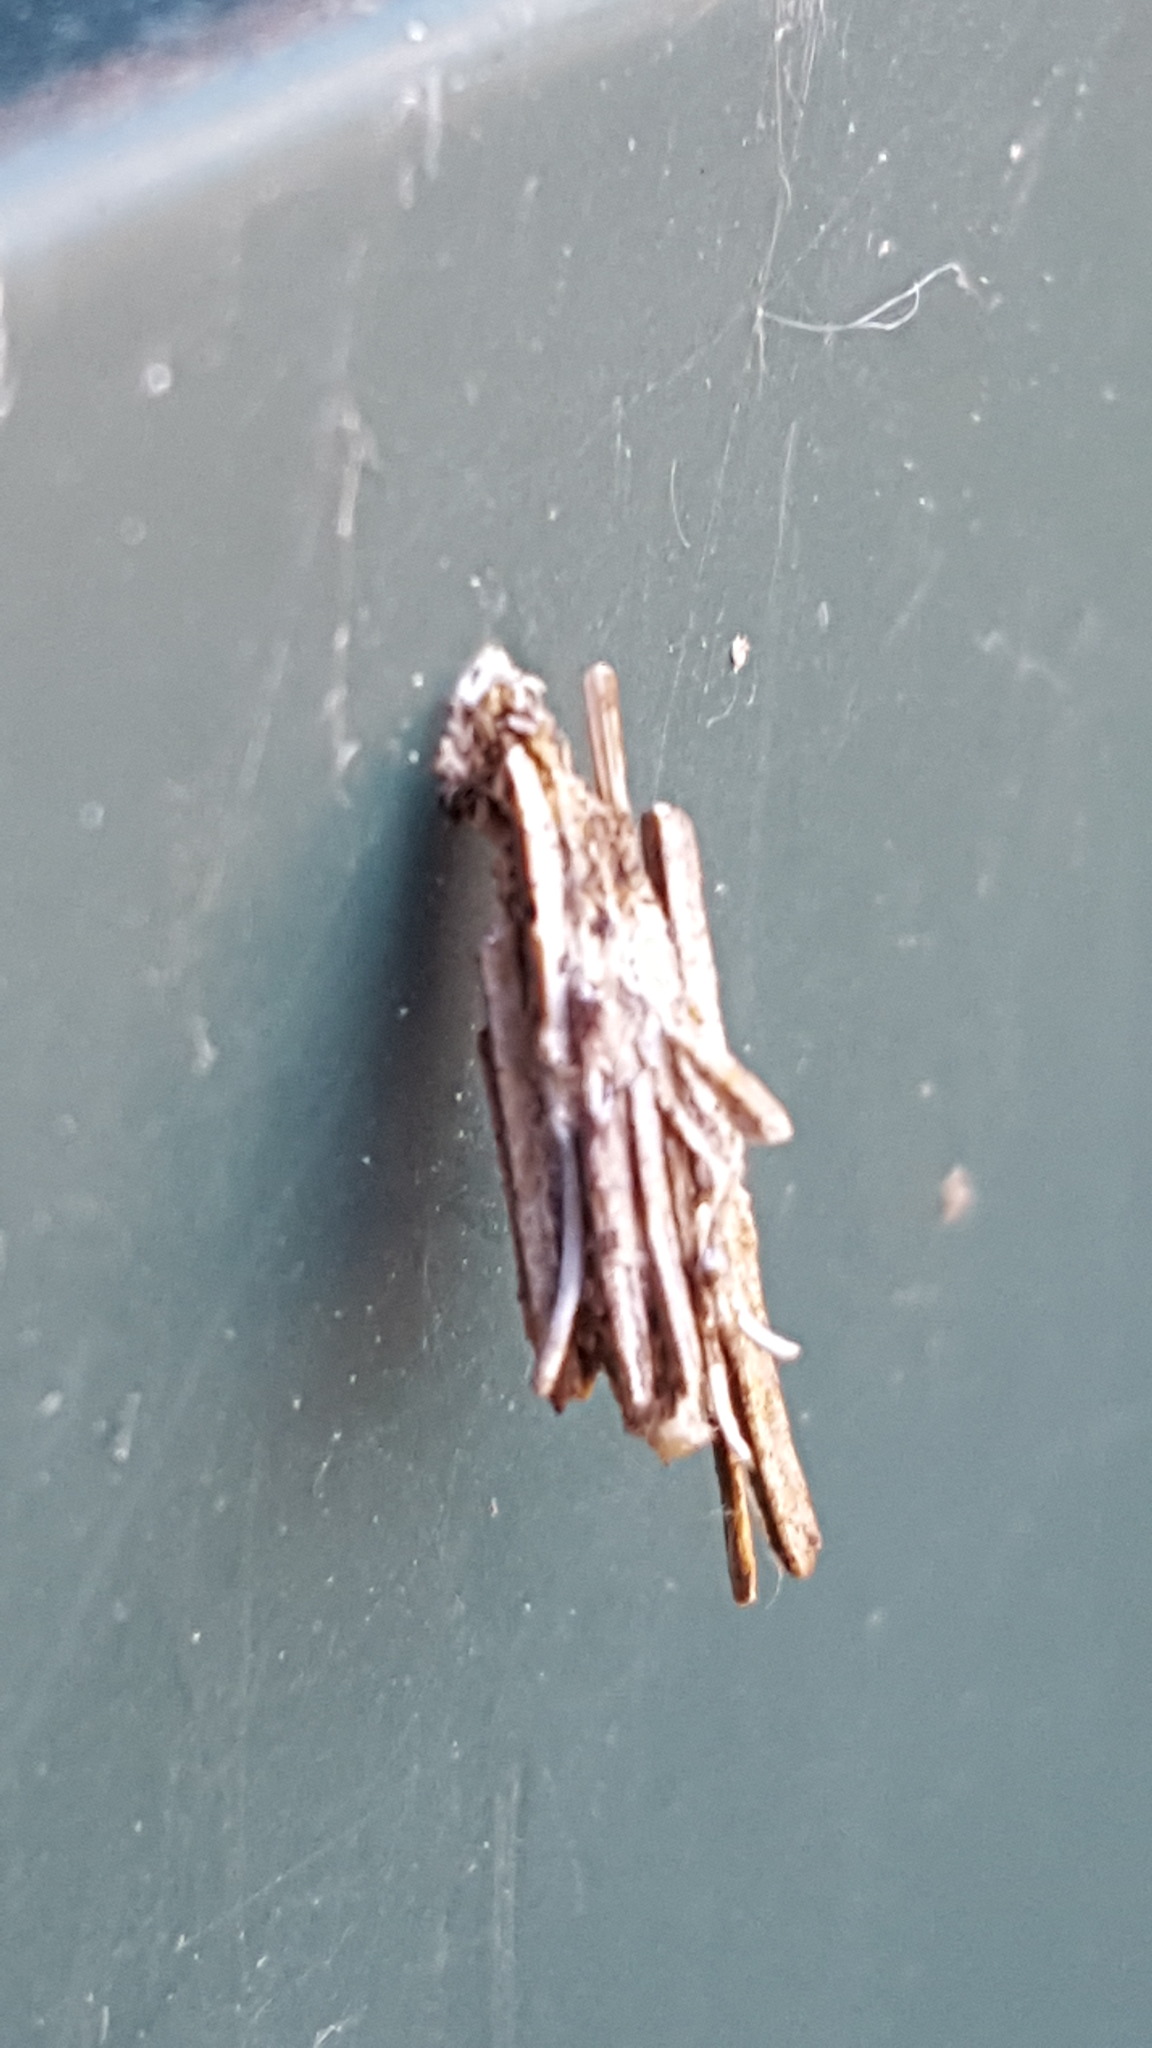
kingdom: Animalia
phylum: Arthropoda
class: Insecta
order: Lepidoptera
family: Psychidae
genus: Psyche
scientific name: Psyche casta
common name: Common sweep
